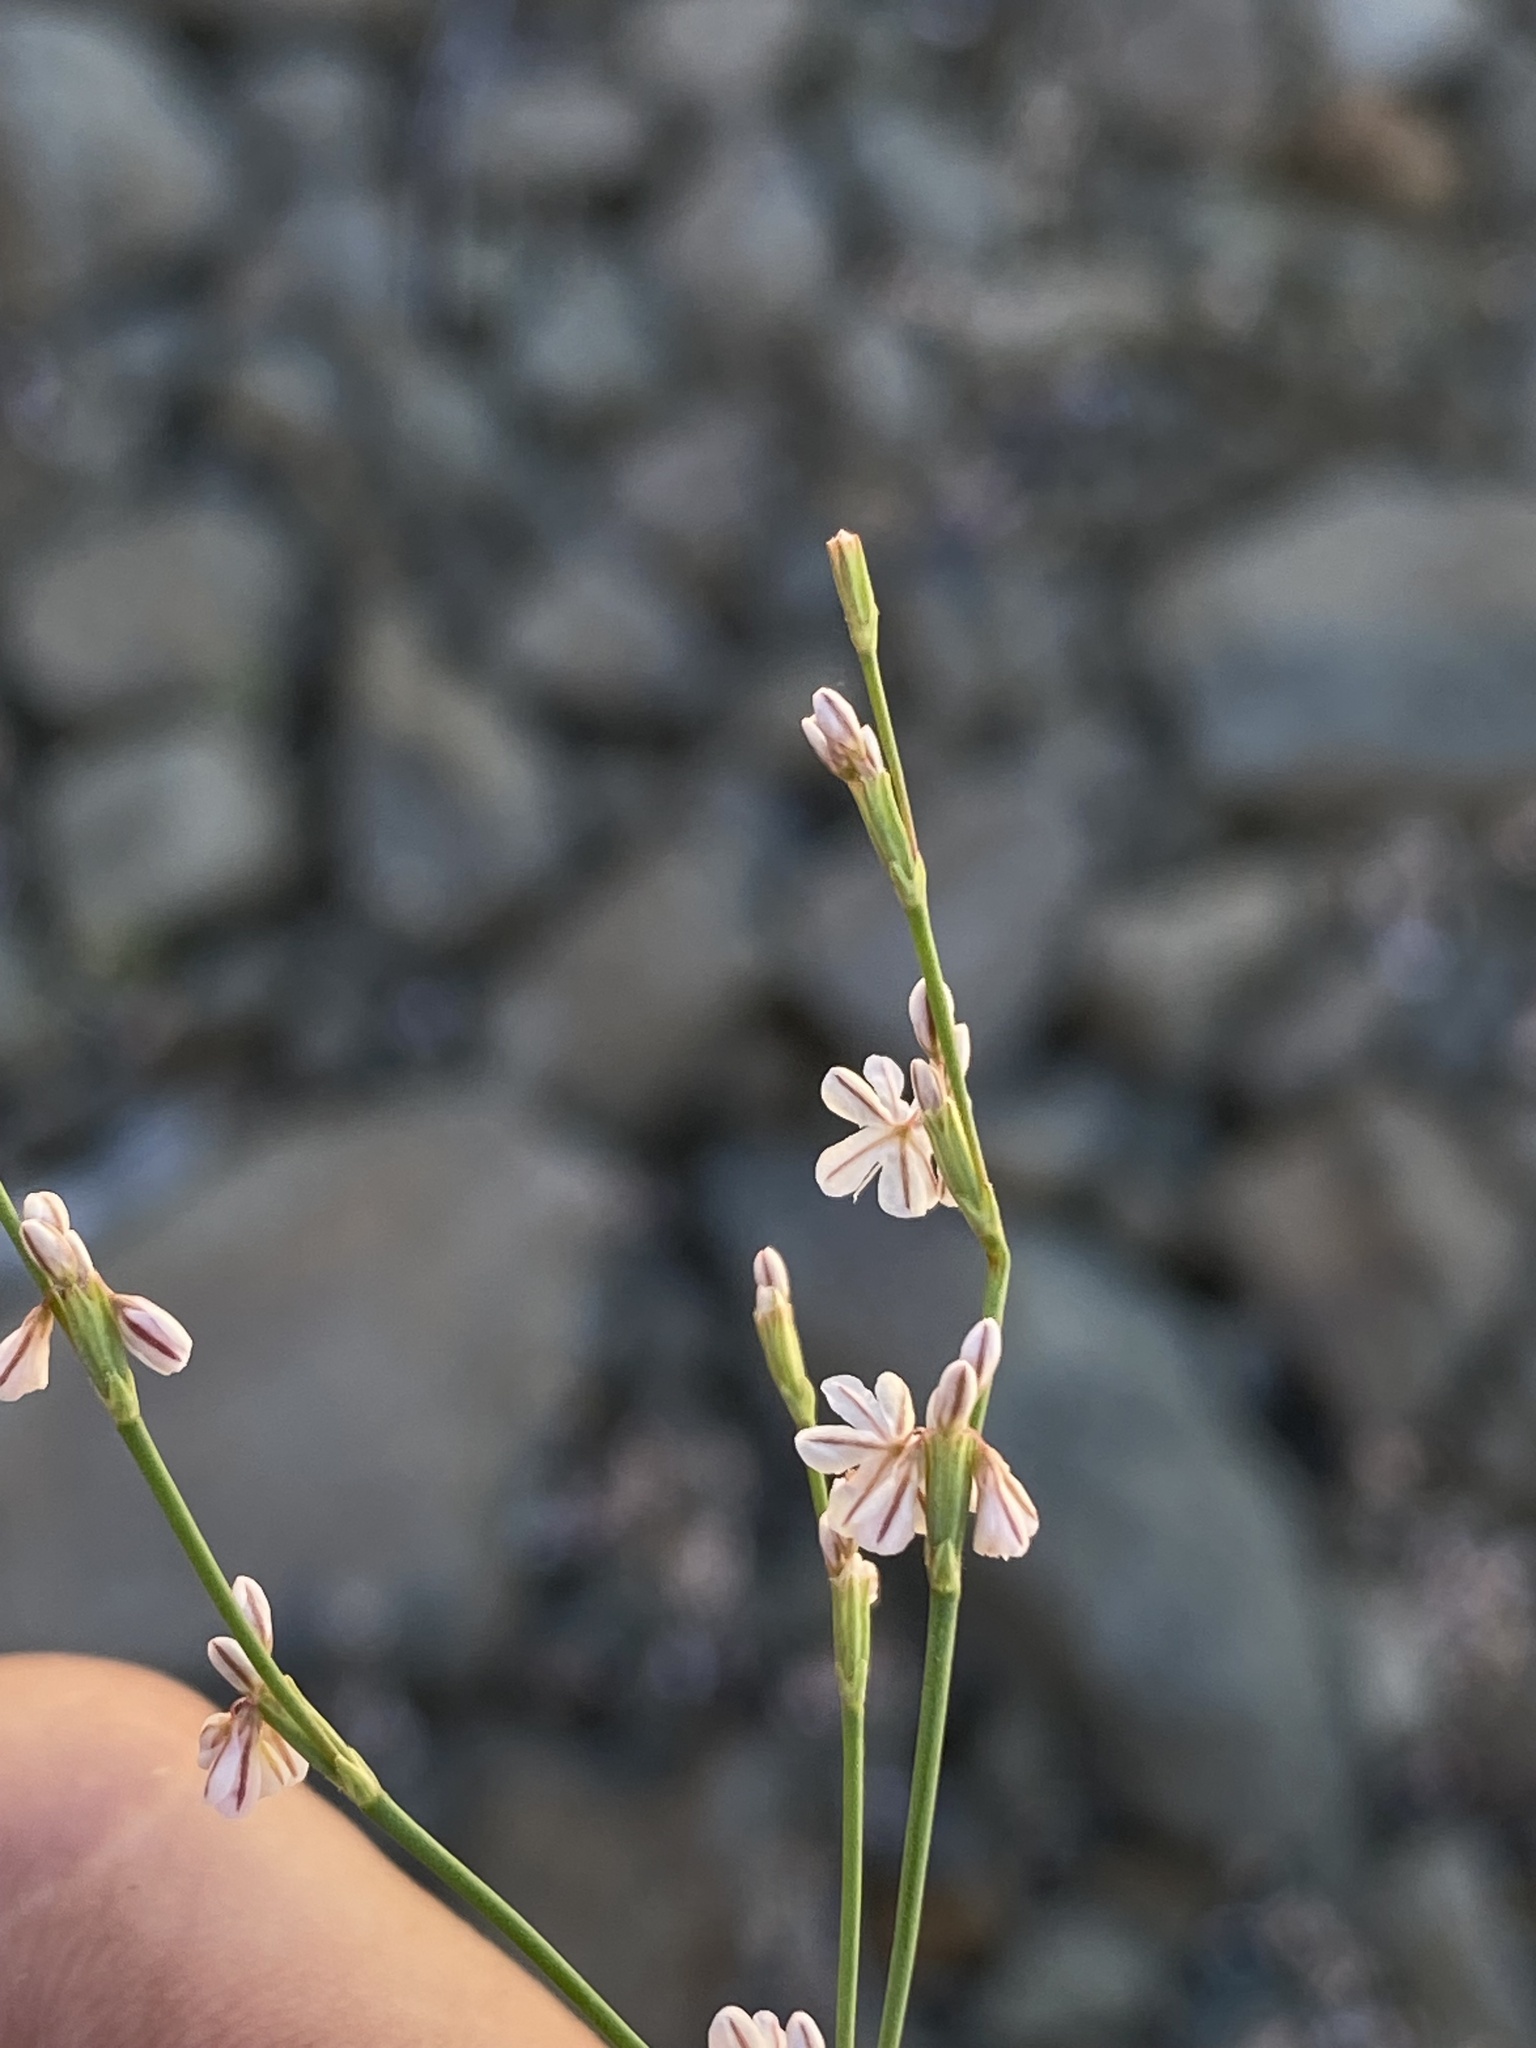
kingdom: Plantae
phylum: Tracheophyta
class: Magnoliopsida
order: Caryophyllales
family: Polygonaceae
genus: Eriogonum
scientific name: Eriogonum vimineum
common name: Wicker buckwheat
